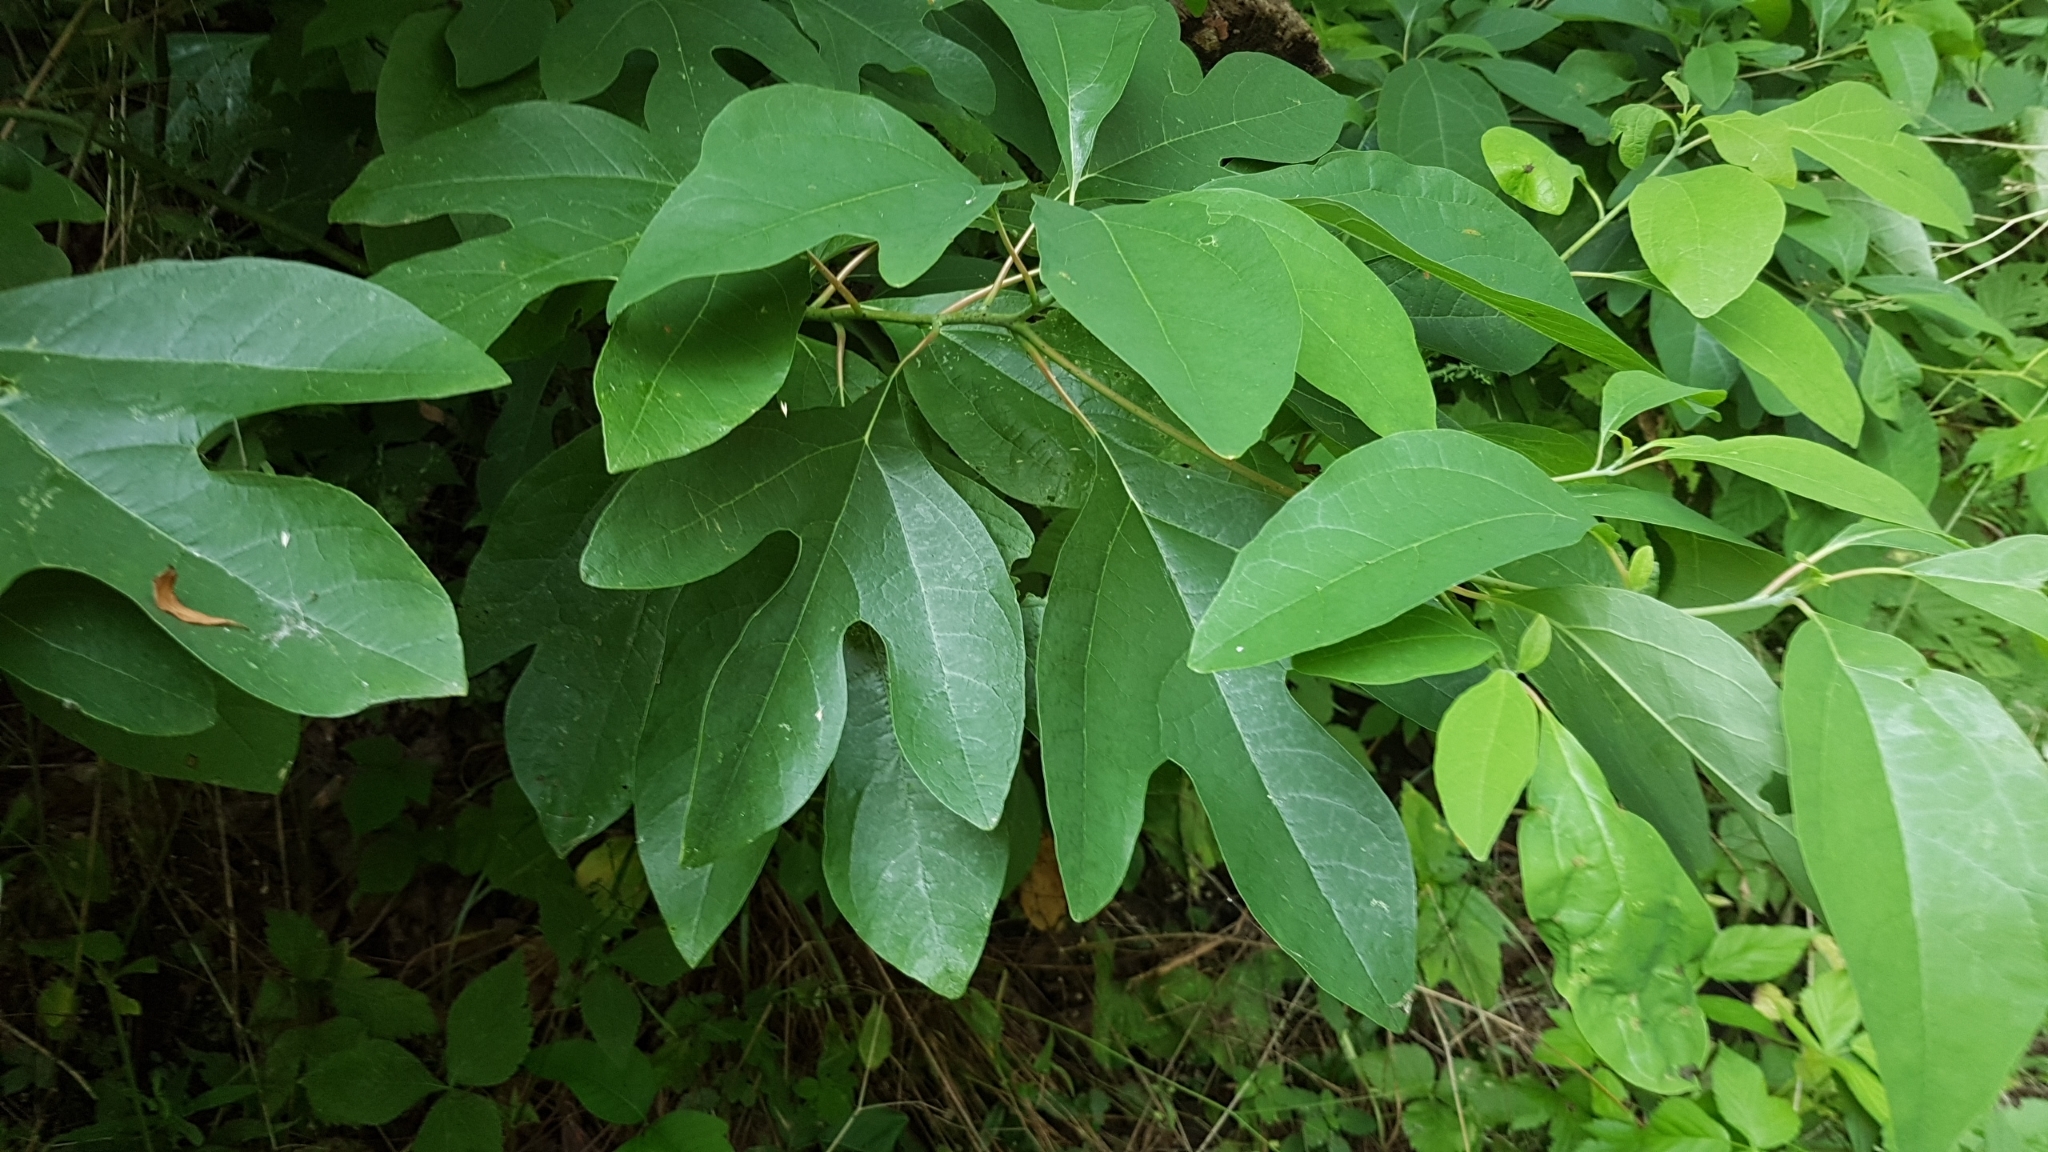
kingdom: Plantae
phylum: Tracheophyta
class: Magnoliopsida
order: Laurales
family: Lauraceae
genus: Sassafras
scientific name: Sassafras albidum
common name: Sassafras
